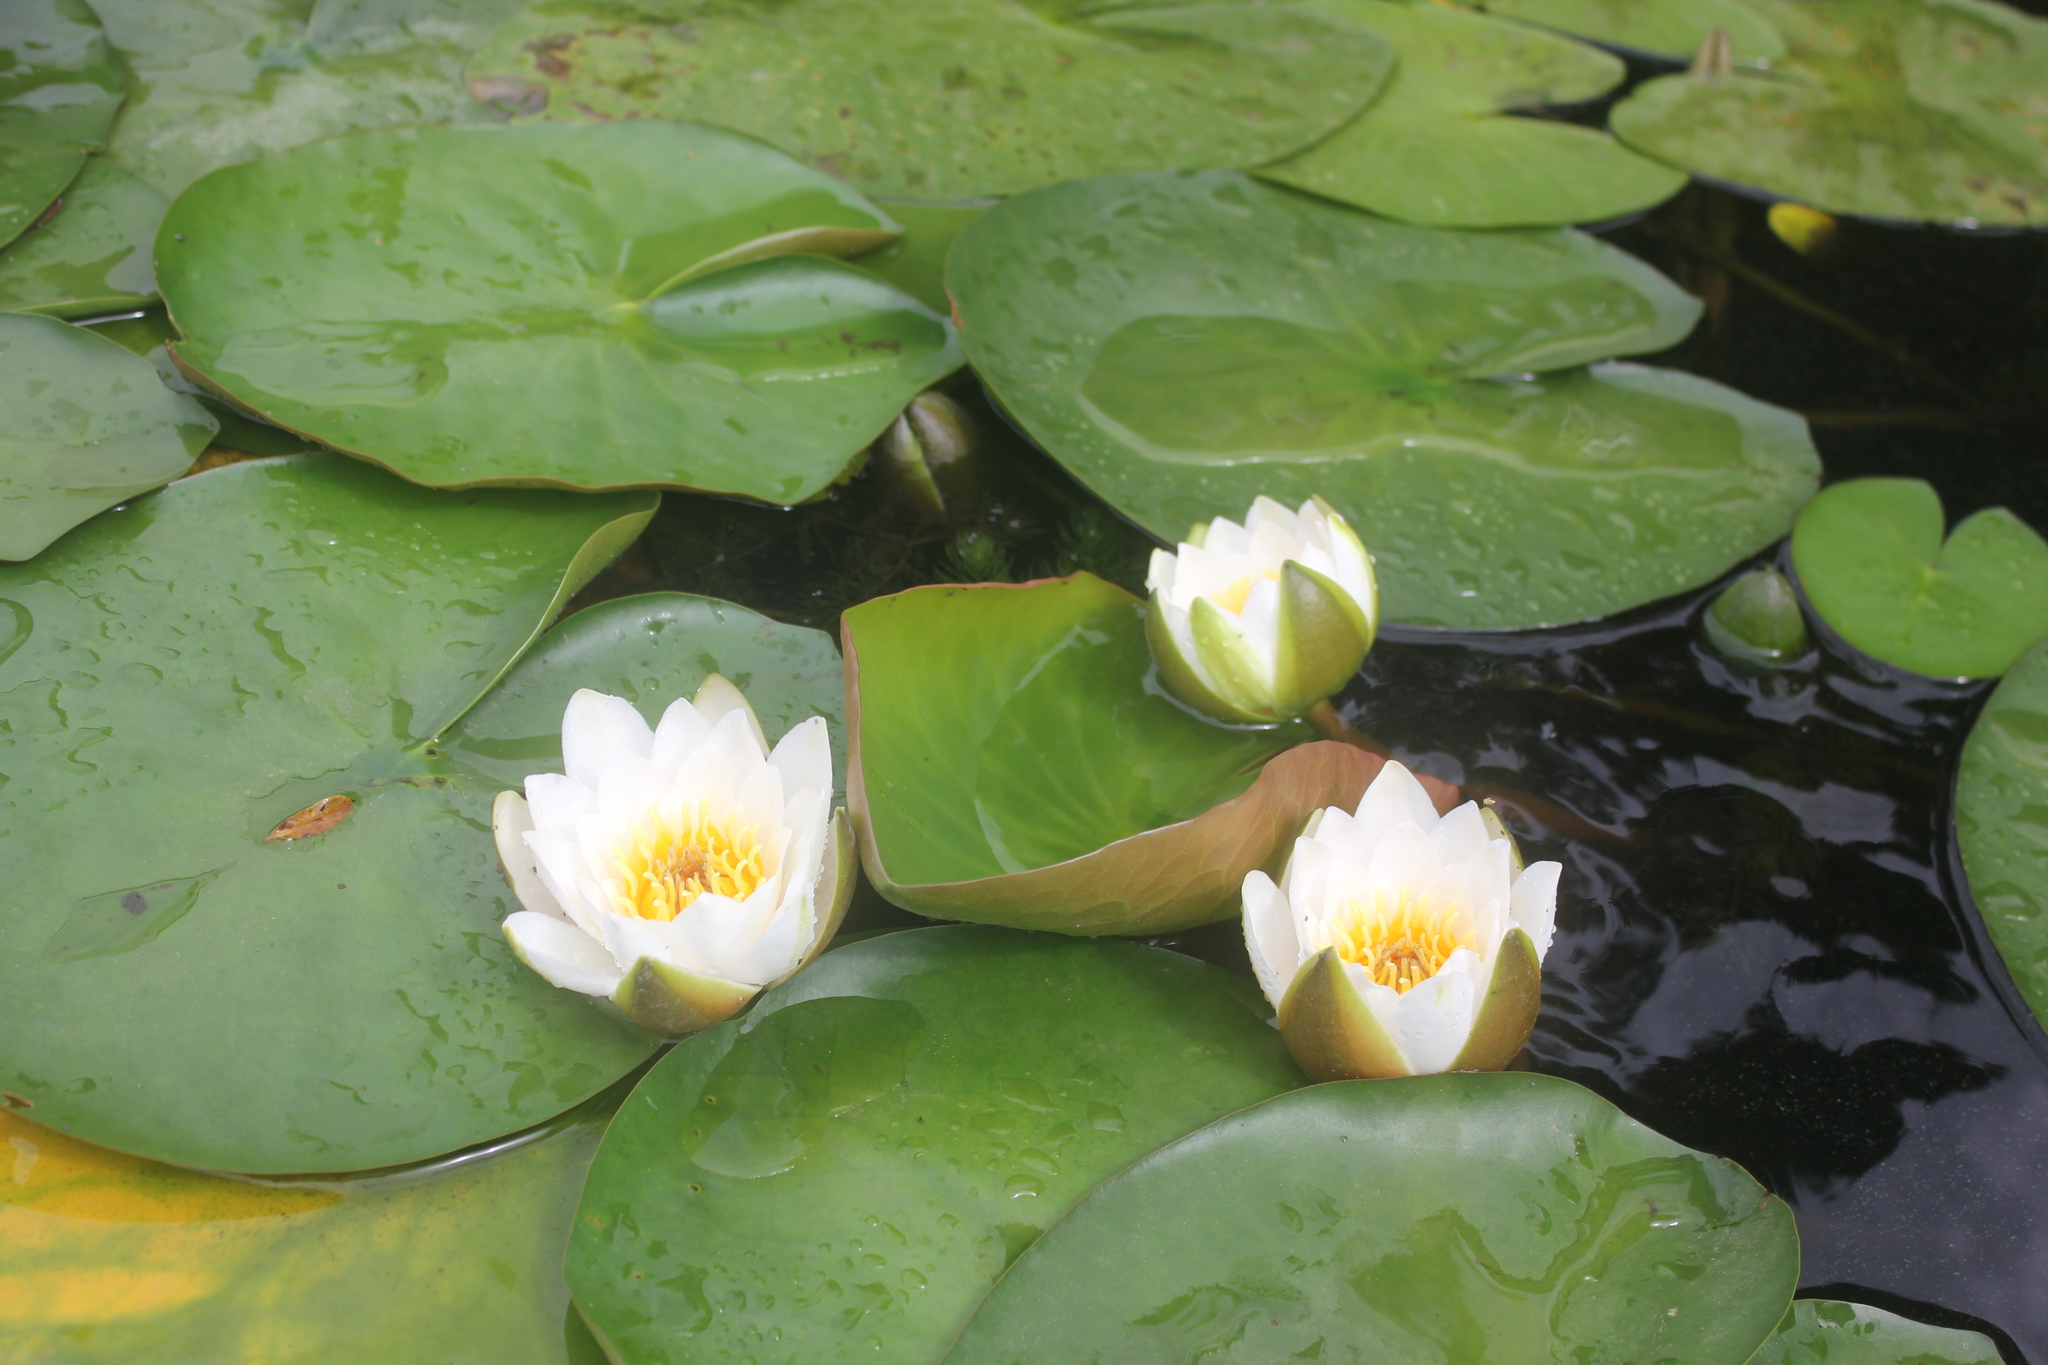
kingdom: Plantae
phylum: Tracheophyta
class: Magnoliopsida
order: Nymphaeales
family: Nymphaeaceae
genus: Nymphaea
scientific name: Nymphaea candida
